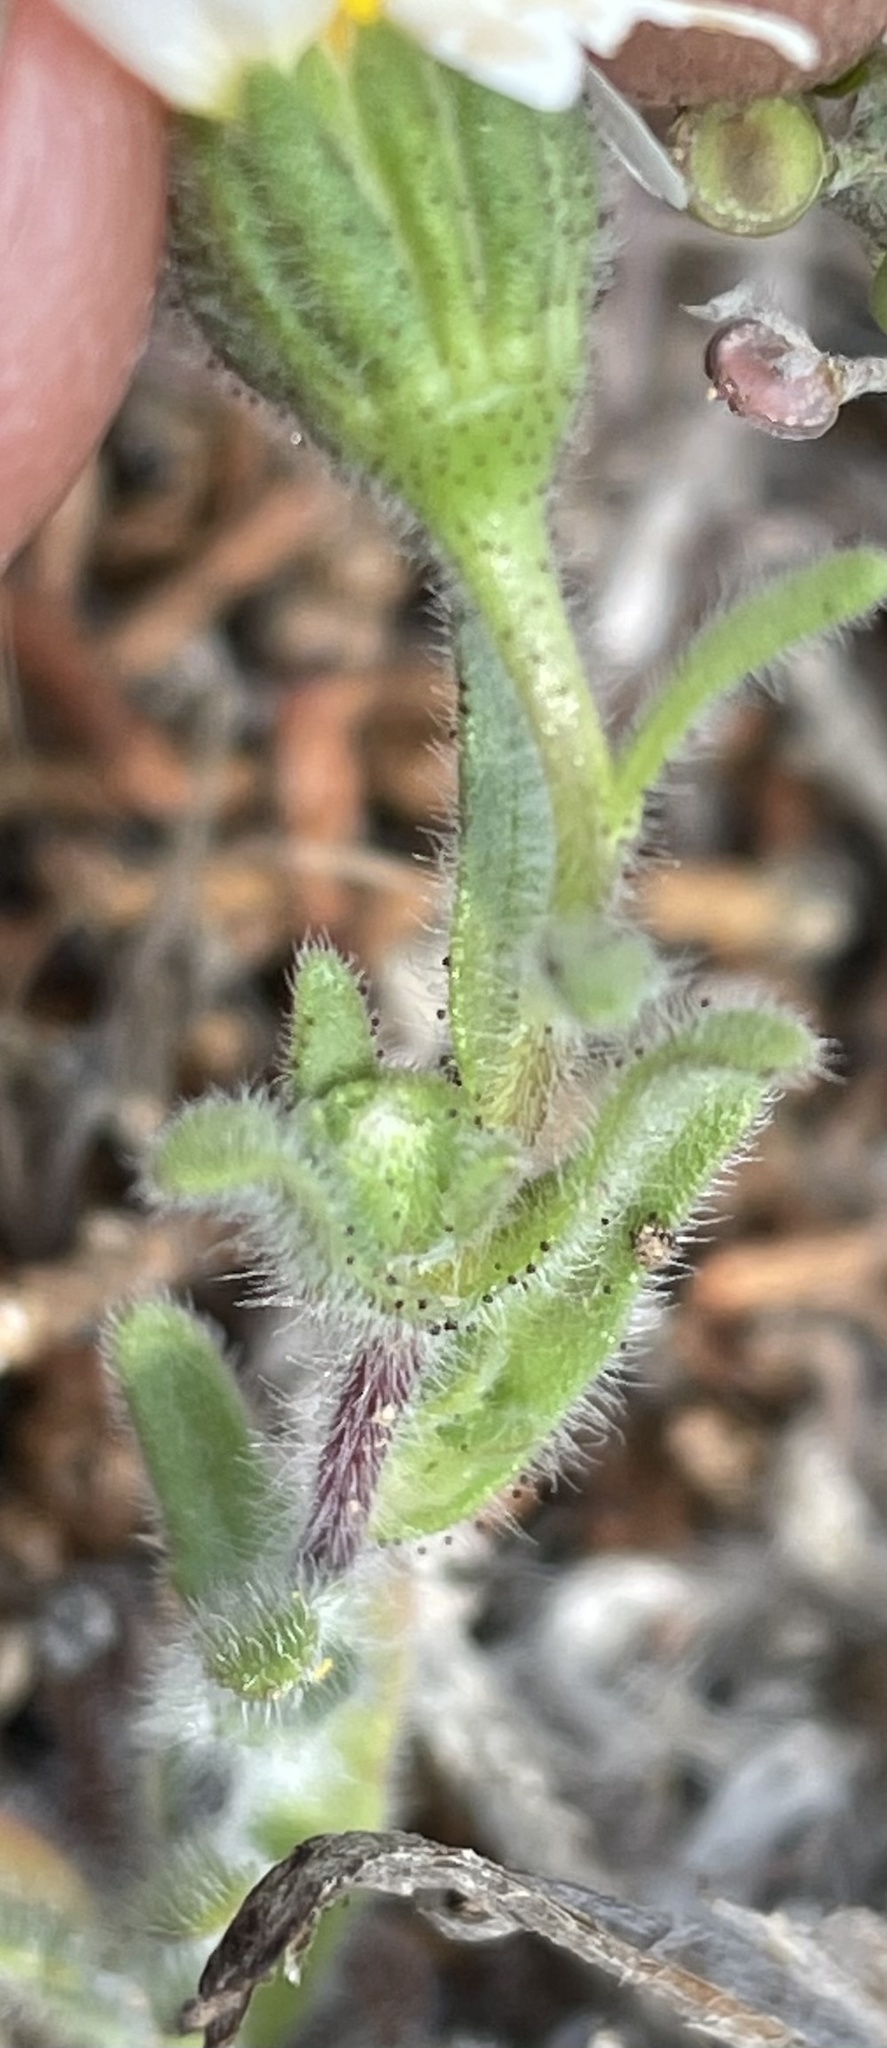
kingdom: Plantae
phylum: Tracheophyta
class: Magnoliopsida
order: Asterales
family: Asteraceae
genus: Layia
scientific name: Layia glandulosa
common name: White layia
